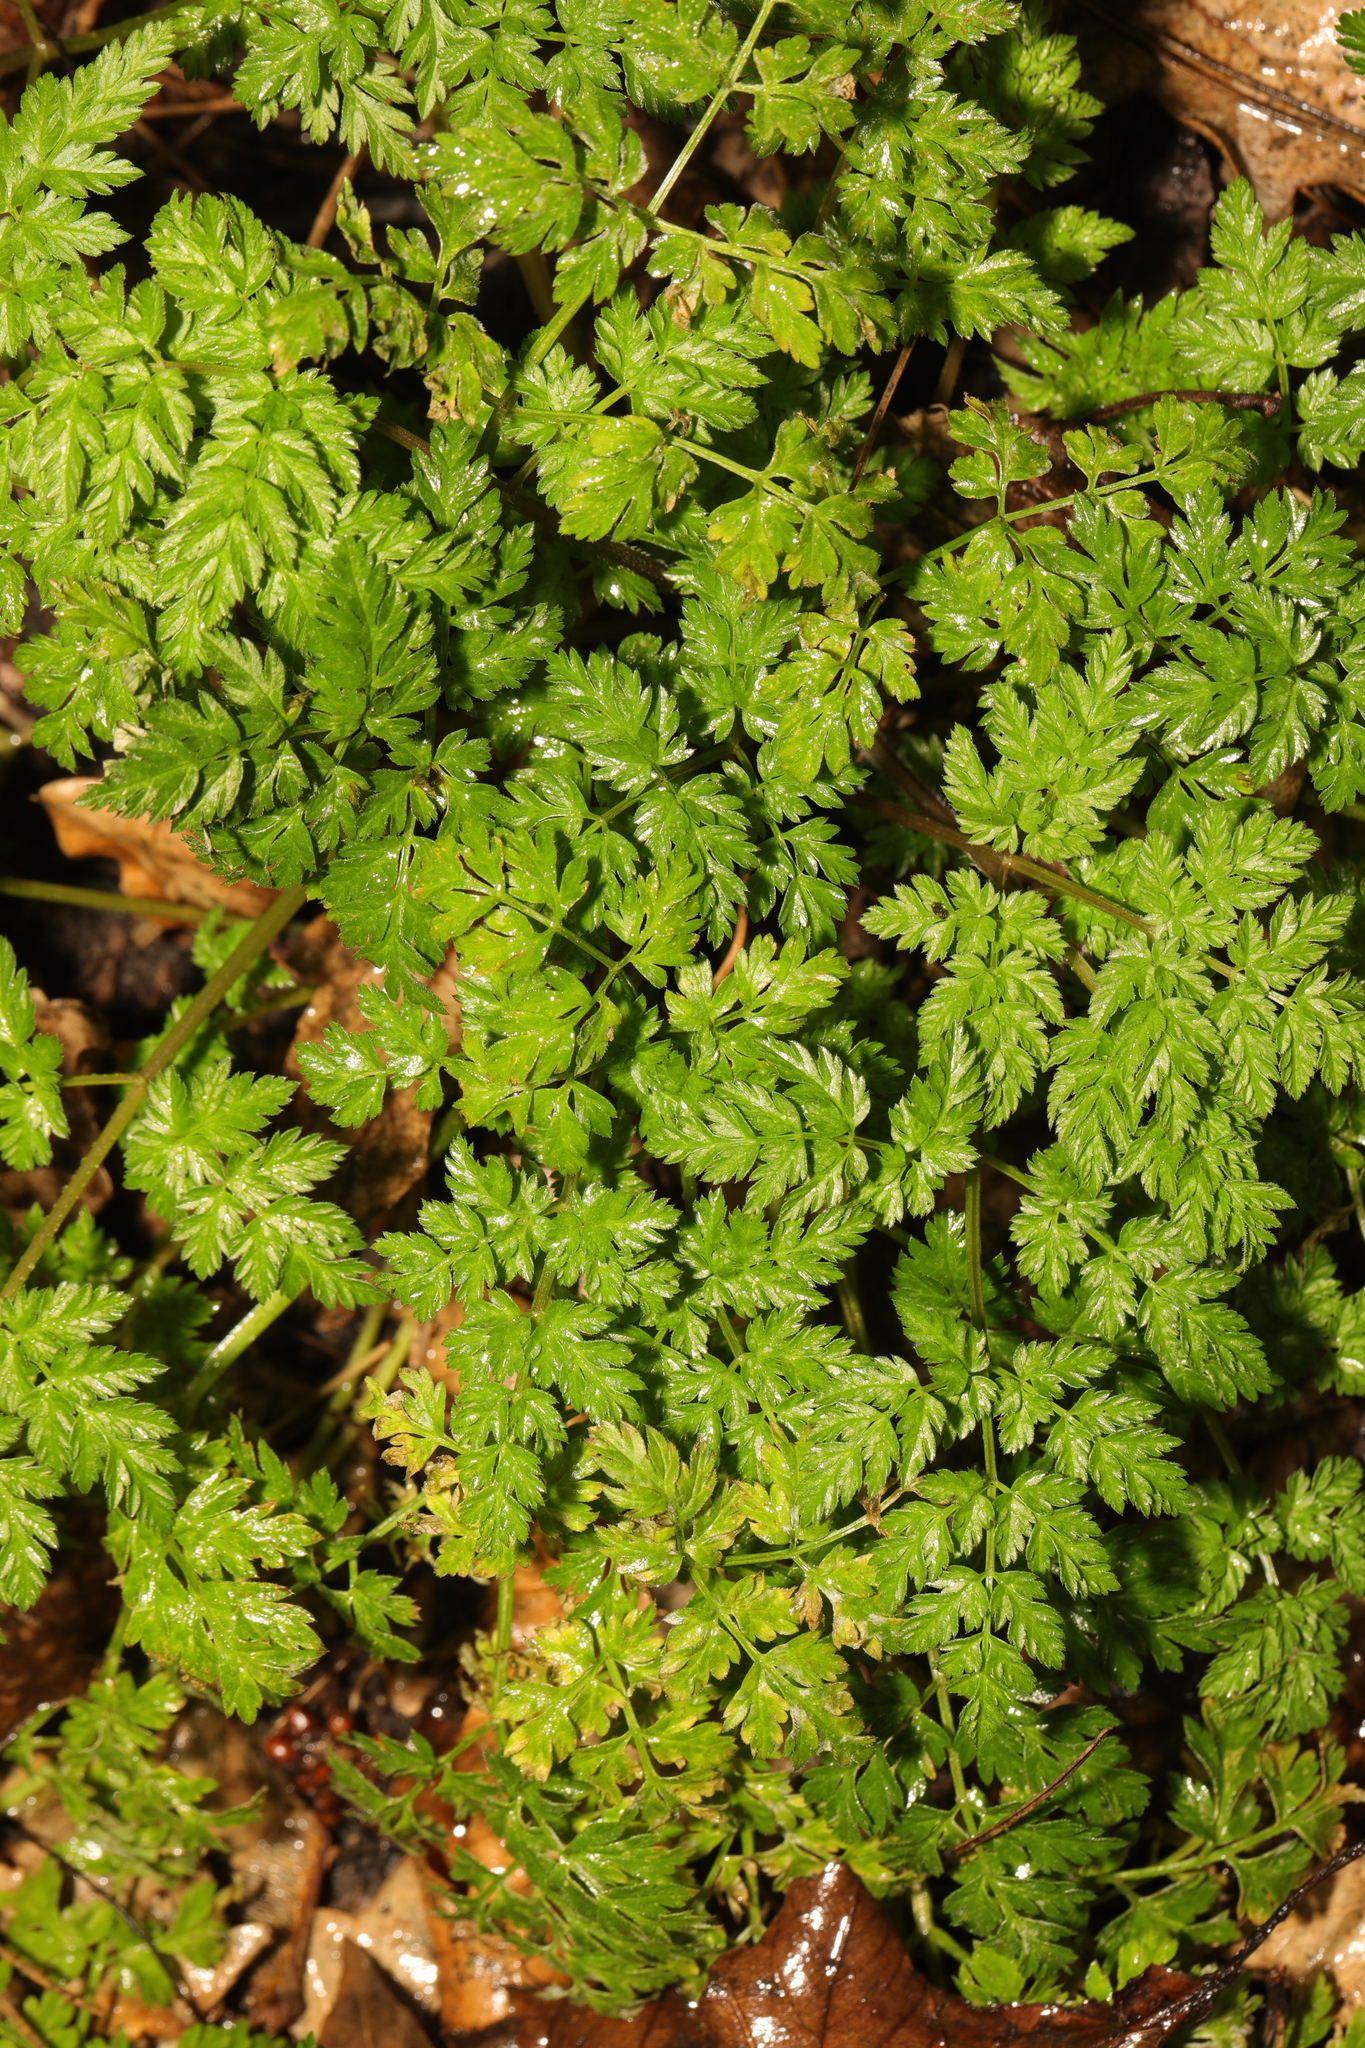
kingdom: Plantae
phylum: Tracheophyta
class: Magnoliopsida
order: Apiales
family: Apiaceae
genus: Anthriscus
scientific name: Anthriscus sylvestris
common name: Cow parsley
